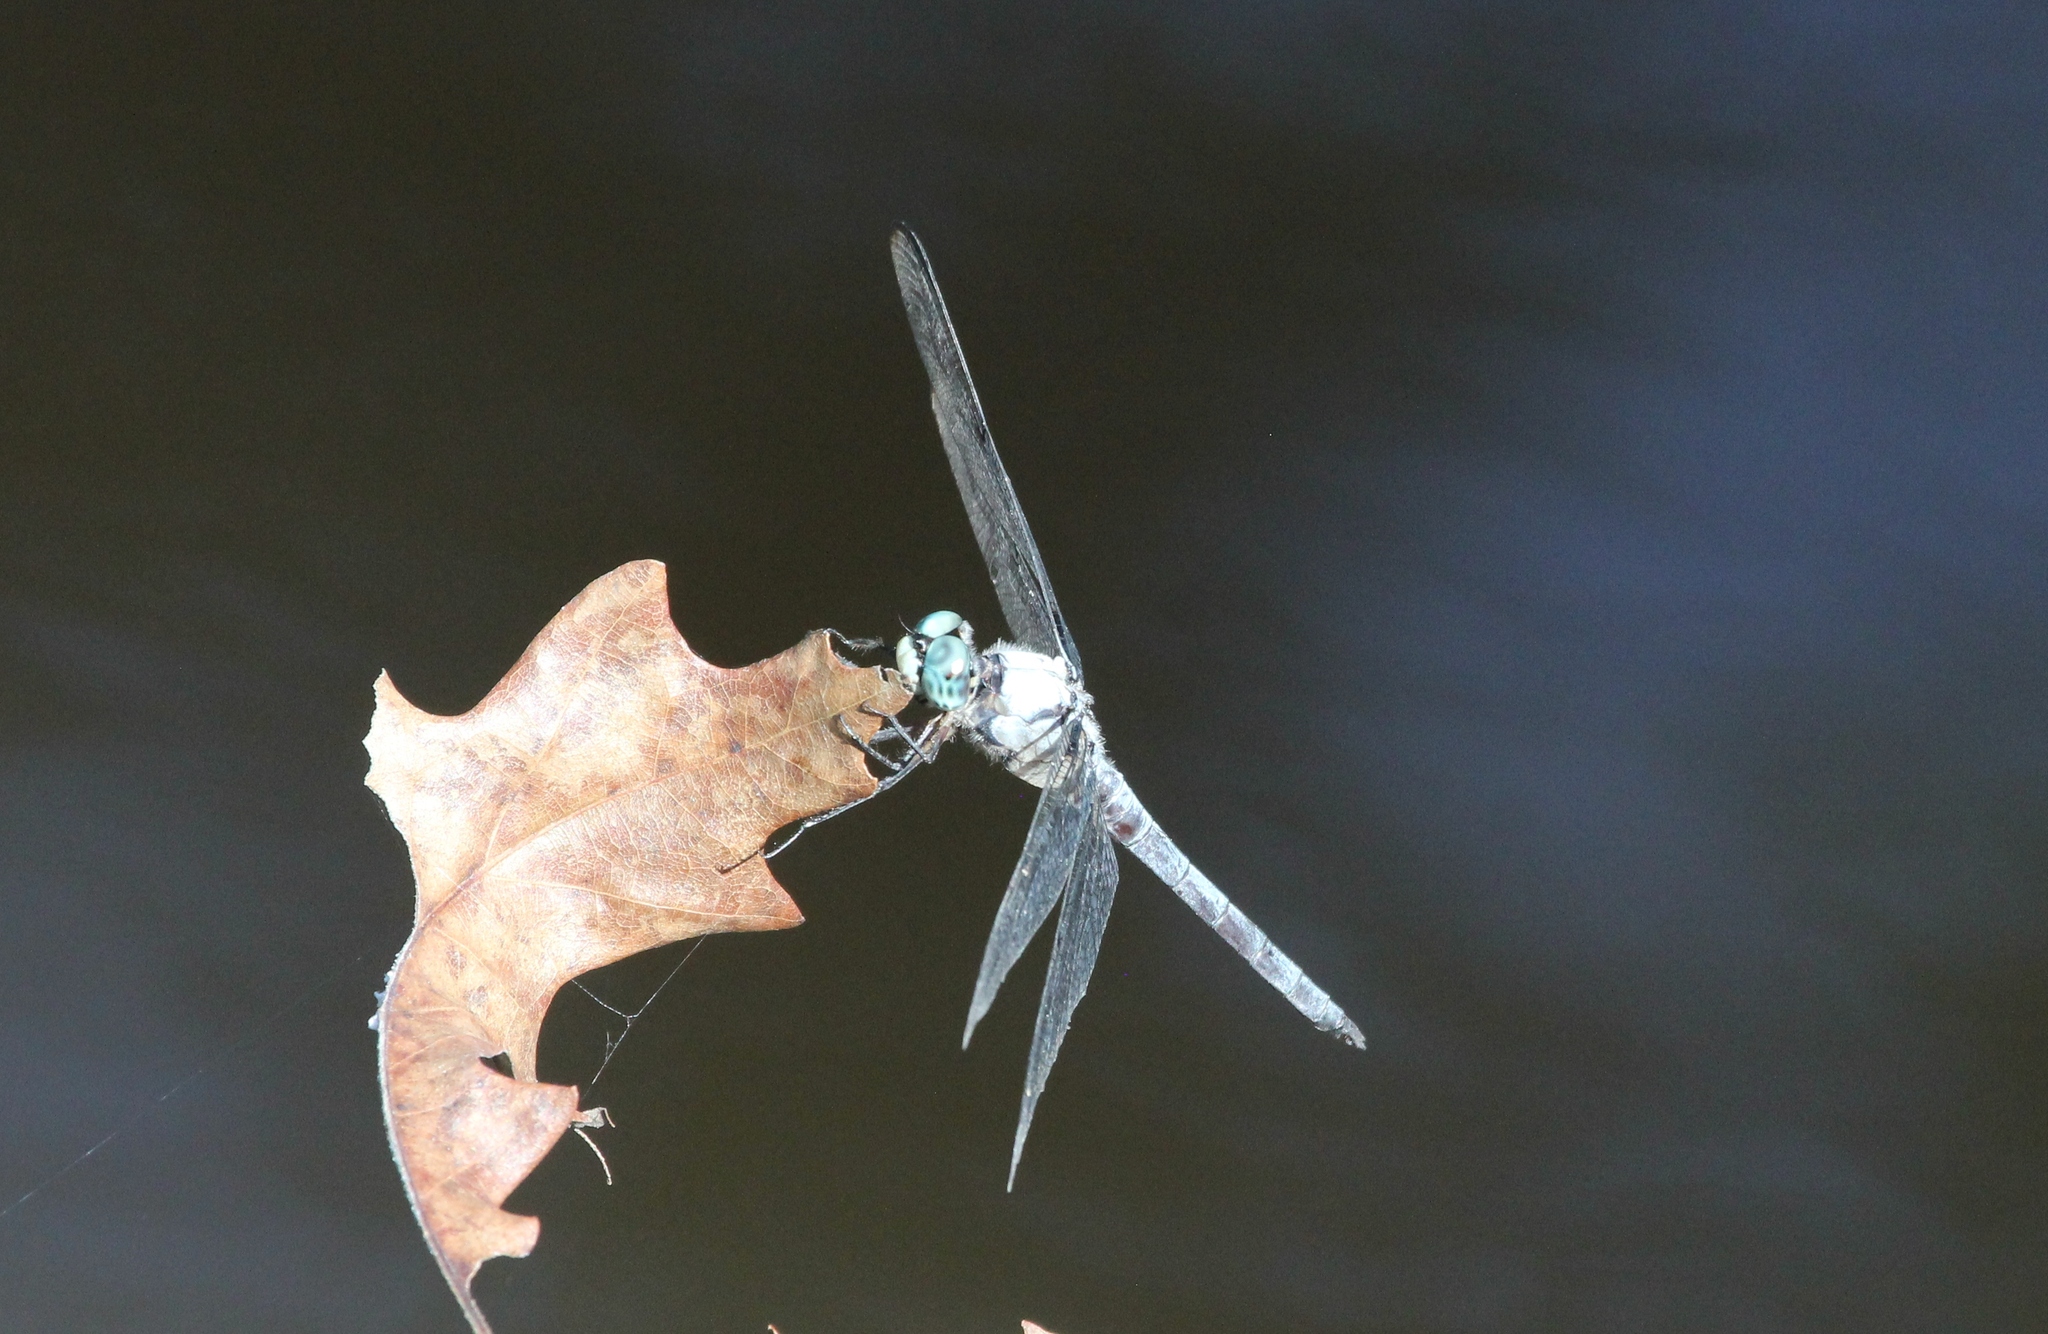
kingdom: Animalia
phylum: Arthropoda
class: Insecta
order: Odonata
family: Libellulidae
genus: Libellula
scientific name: Libellula vibrans
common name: Great blue skimmer
